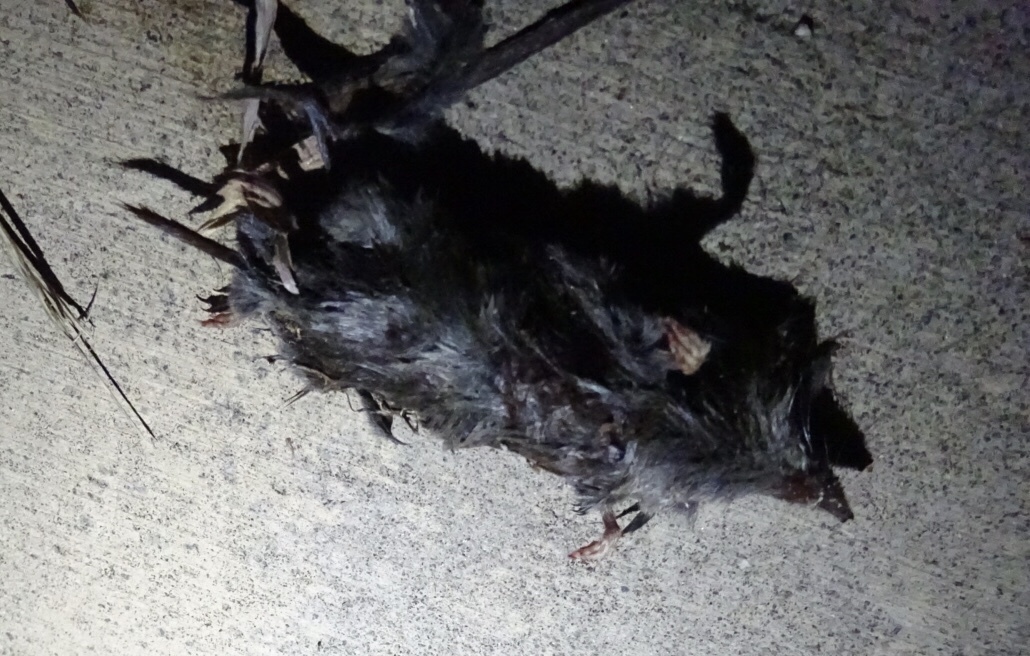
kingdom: Animalia
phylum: Chordata
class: Mammalia
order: Soricomorpha
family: Soricidae
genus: Cryptotis
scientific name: Cryptotis parva
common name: North american least shrew
